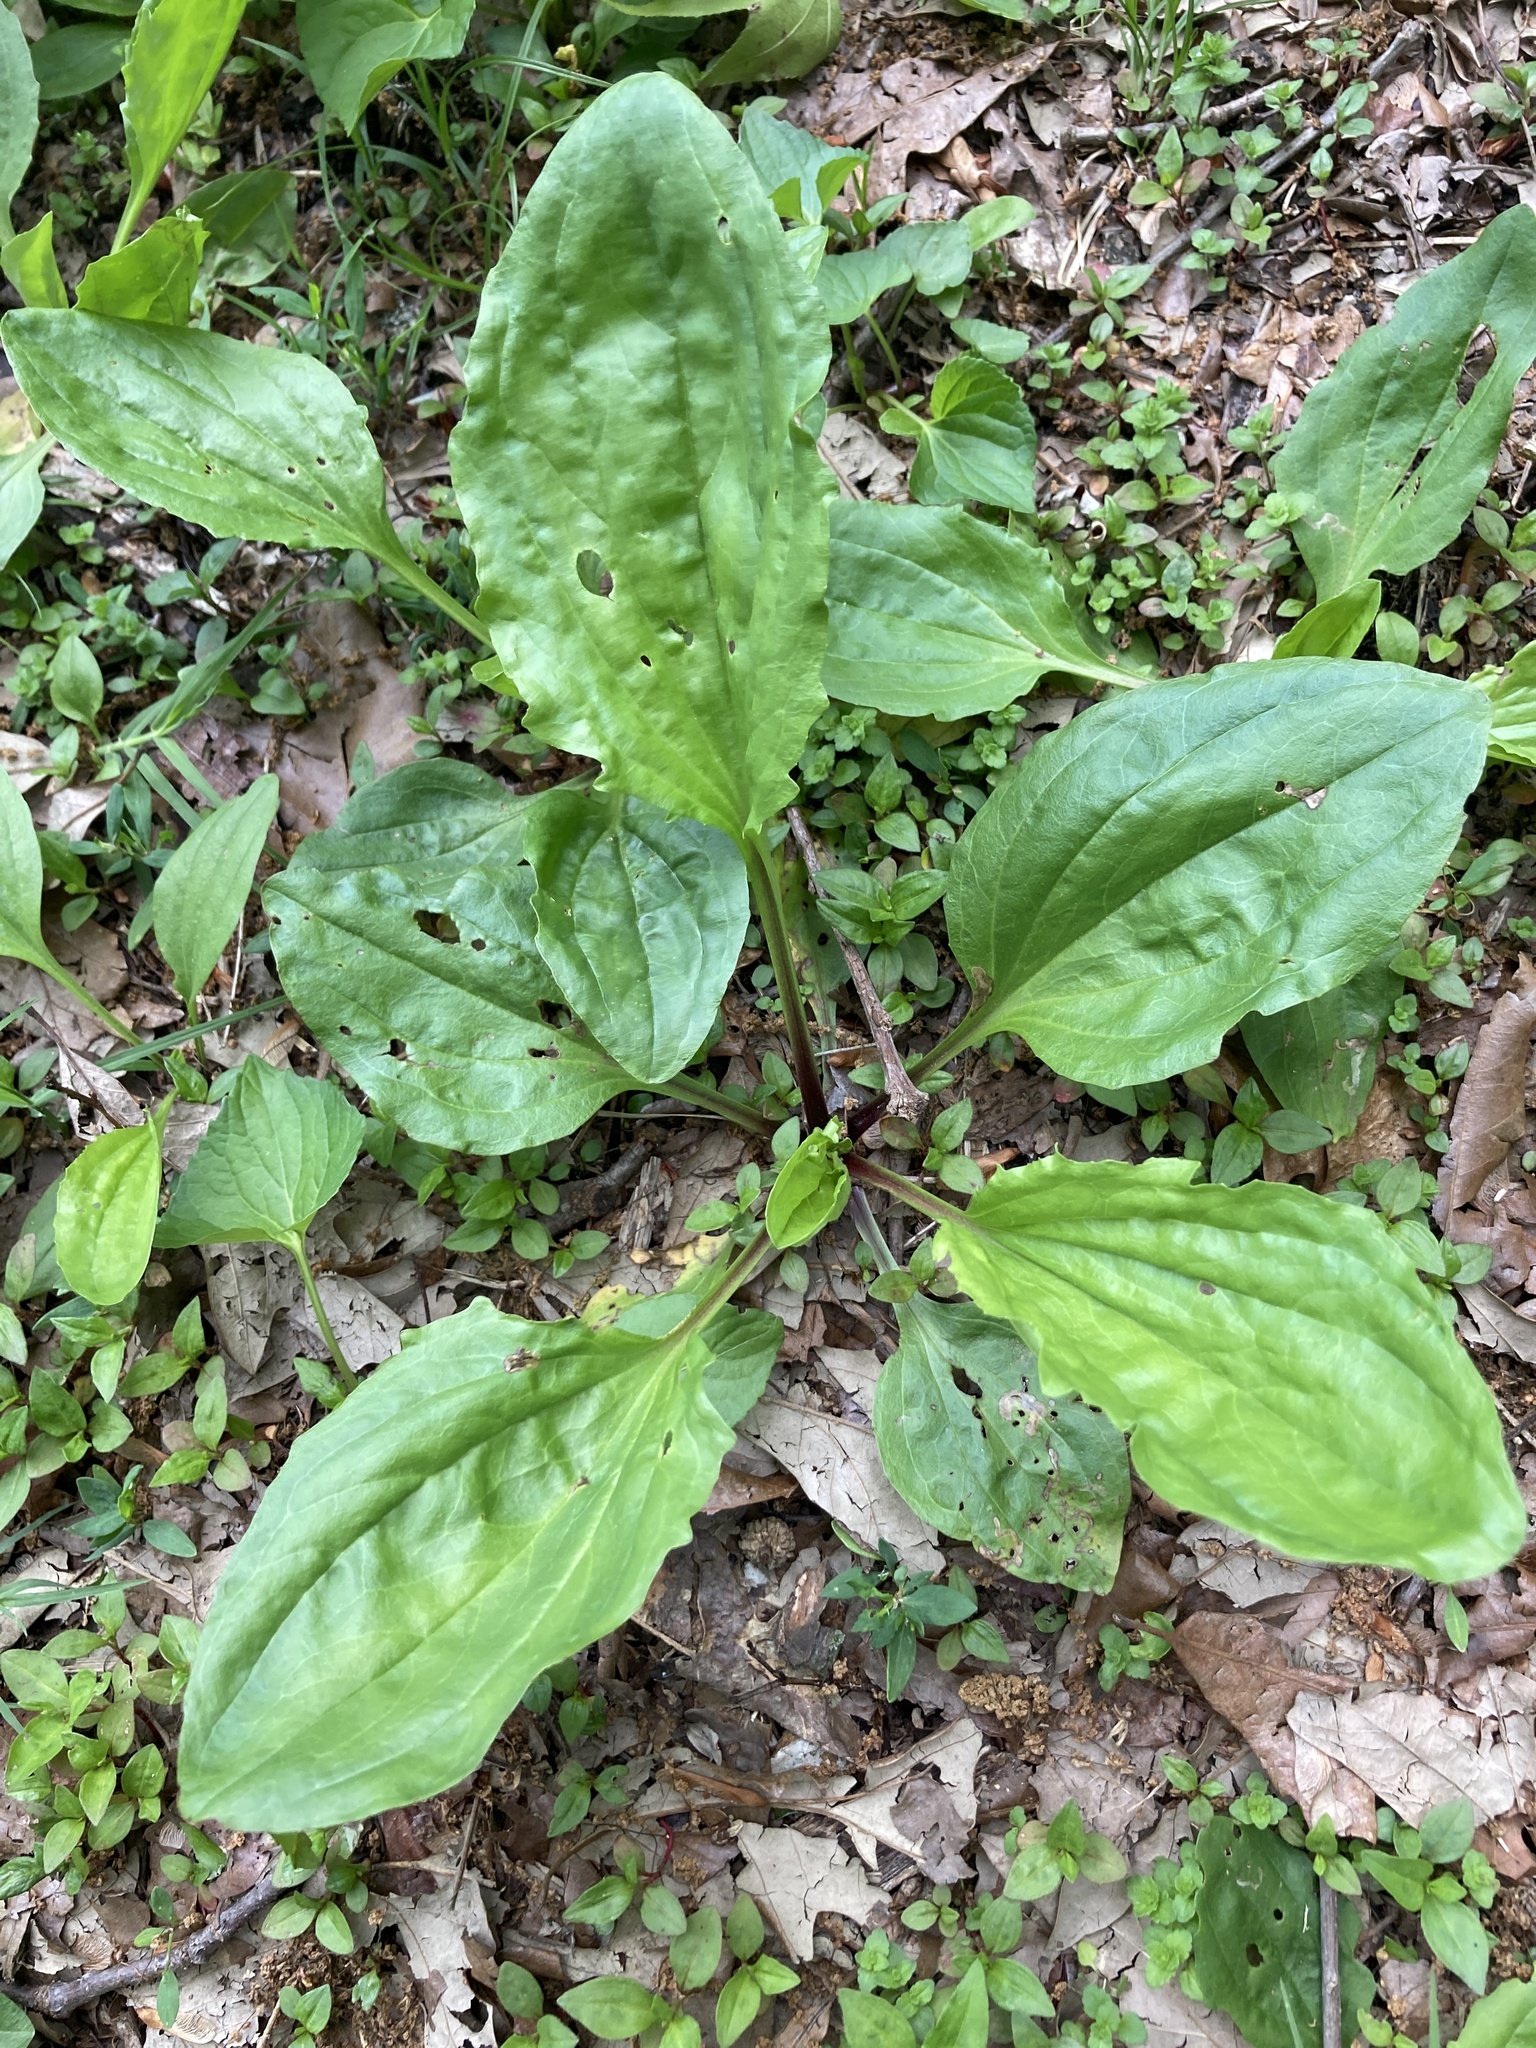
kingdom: Plantae
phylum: Tracheophyta
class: Magnoliopsida
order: Lamiales
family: Plantaginaceae
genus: Plantago
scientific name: Plantago rugelii
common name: American plantain
